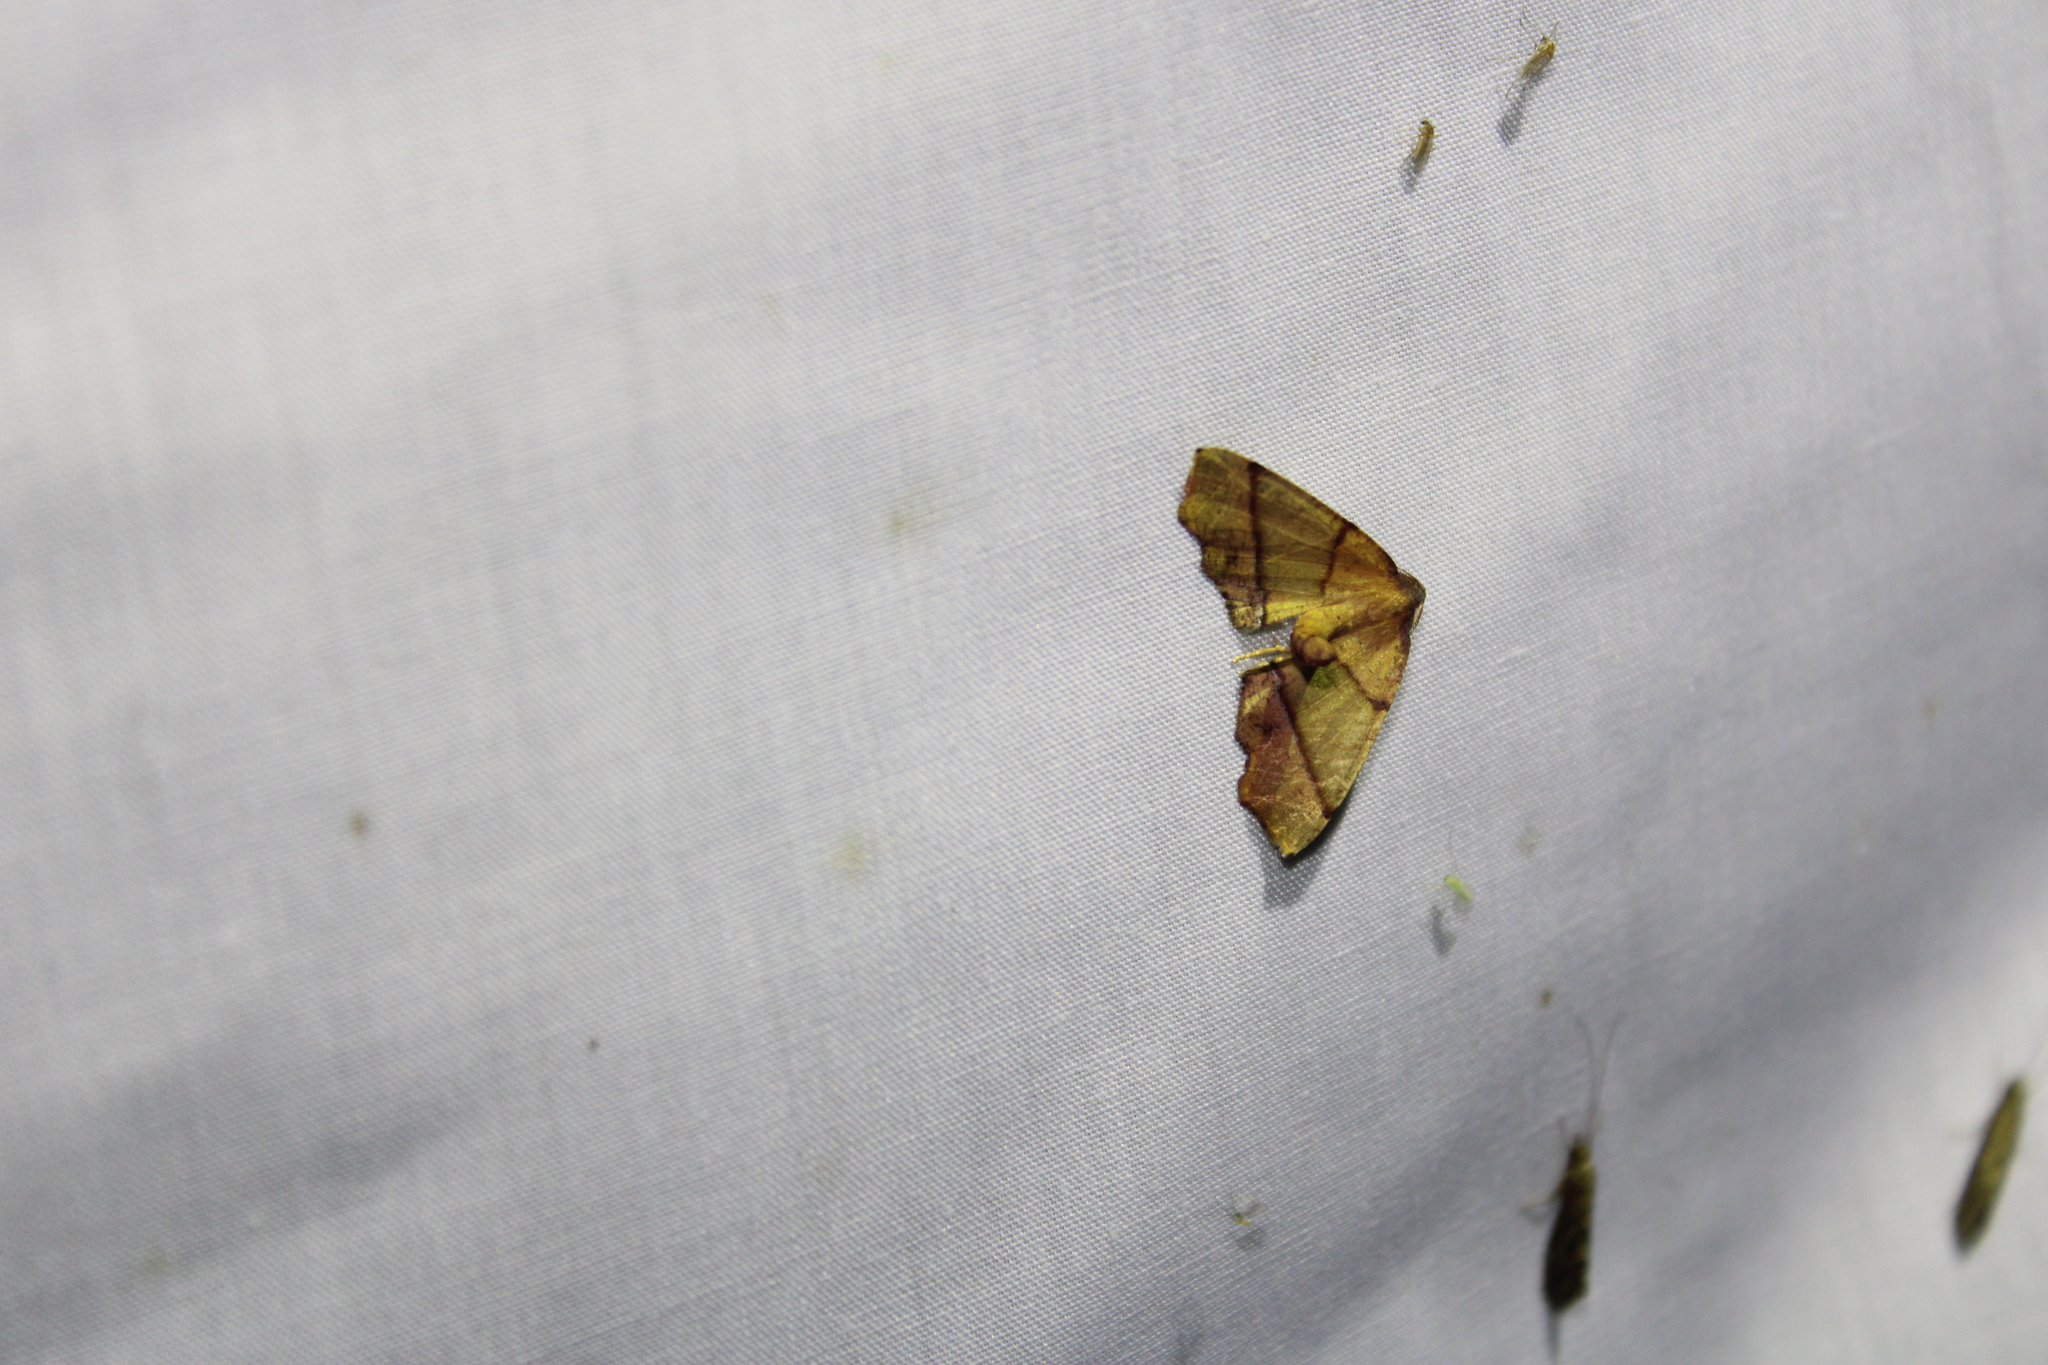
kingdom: Animalia
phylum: Arthropoda
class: Insecta
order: Lepidoptera
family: Geometridae
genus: Plagodis
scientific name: Plagodis phlogosaria
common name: Straight-lined plagodis
